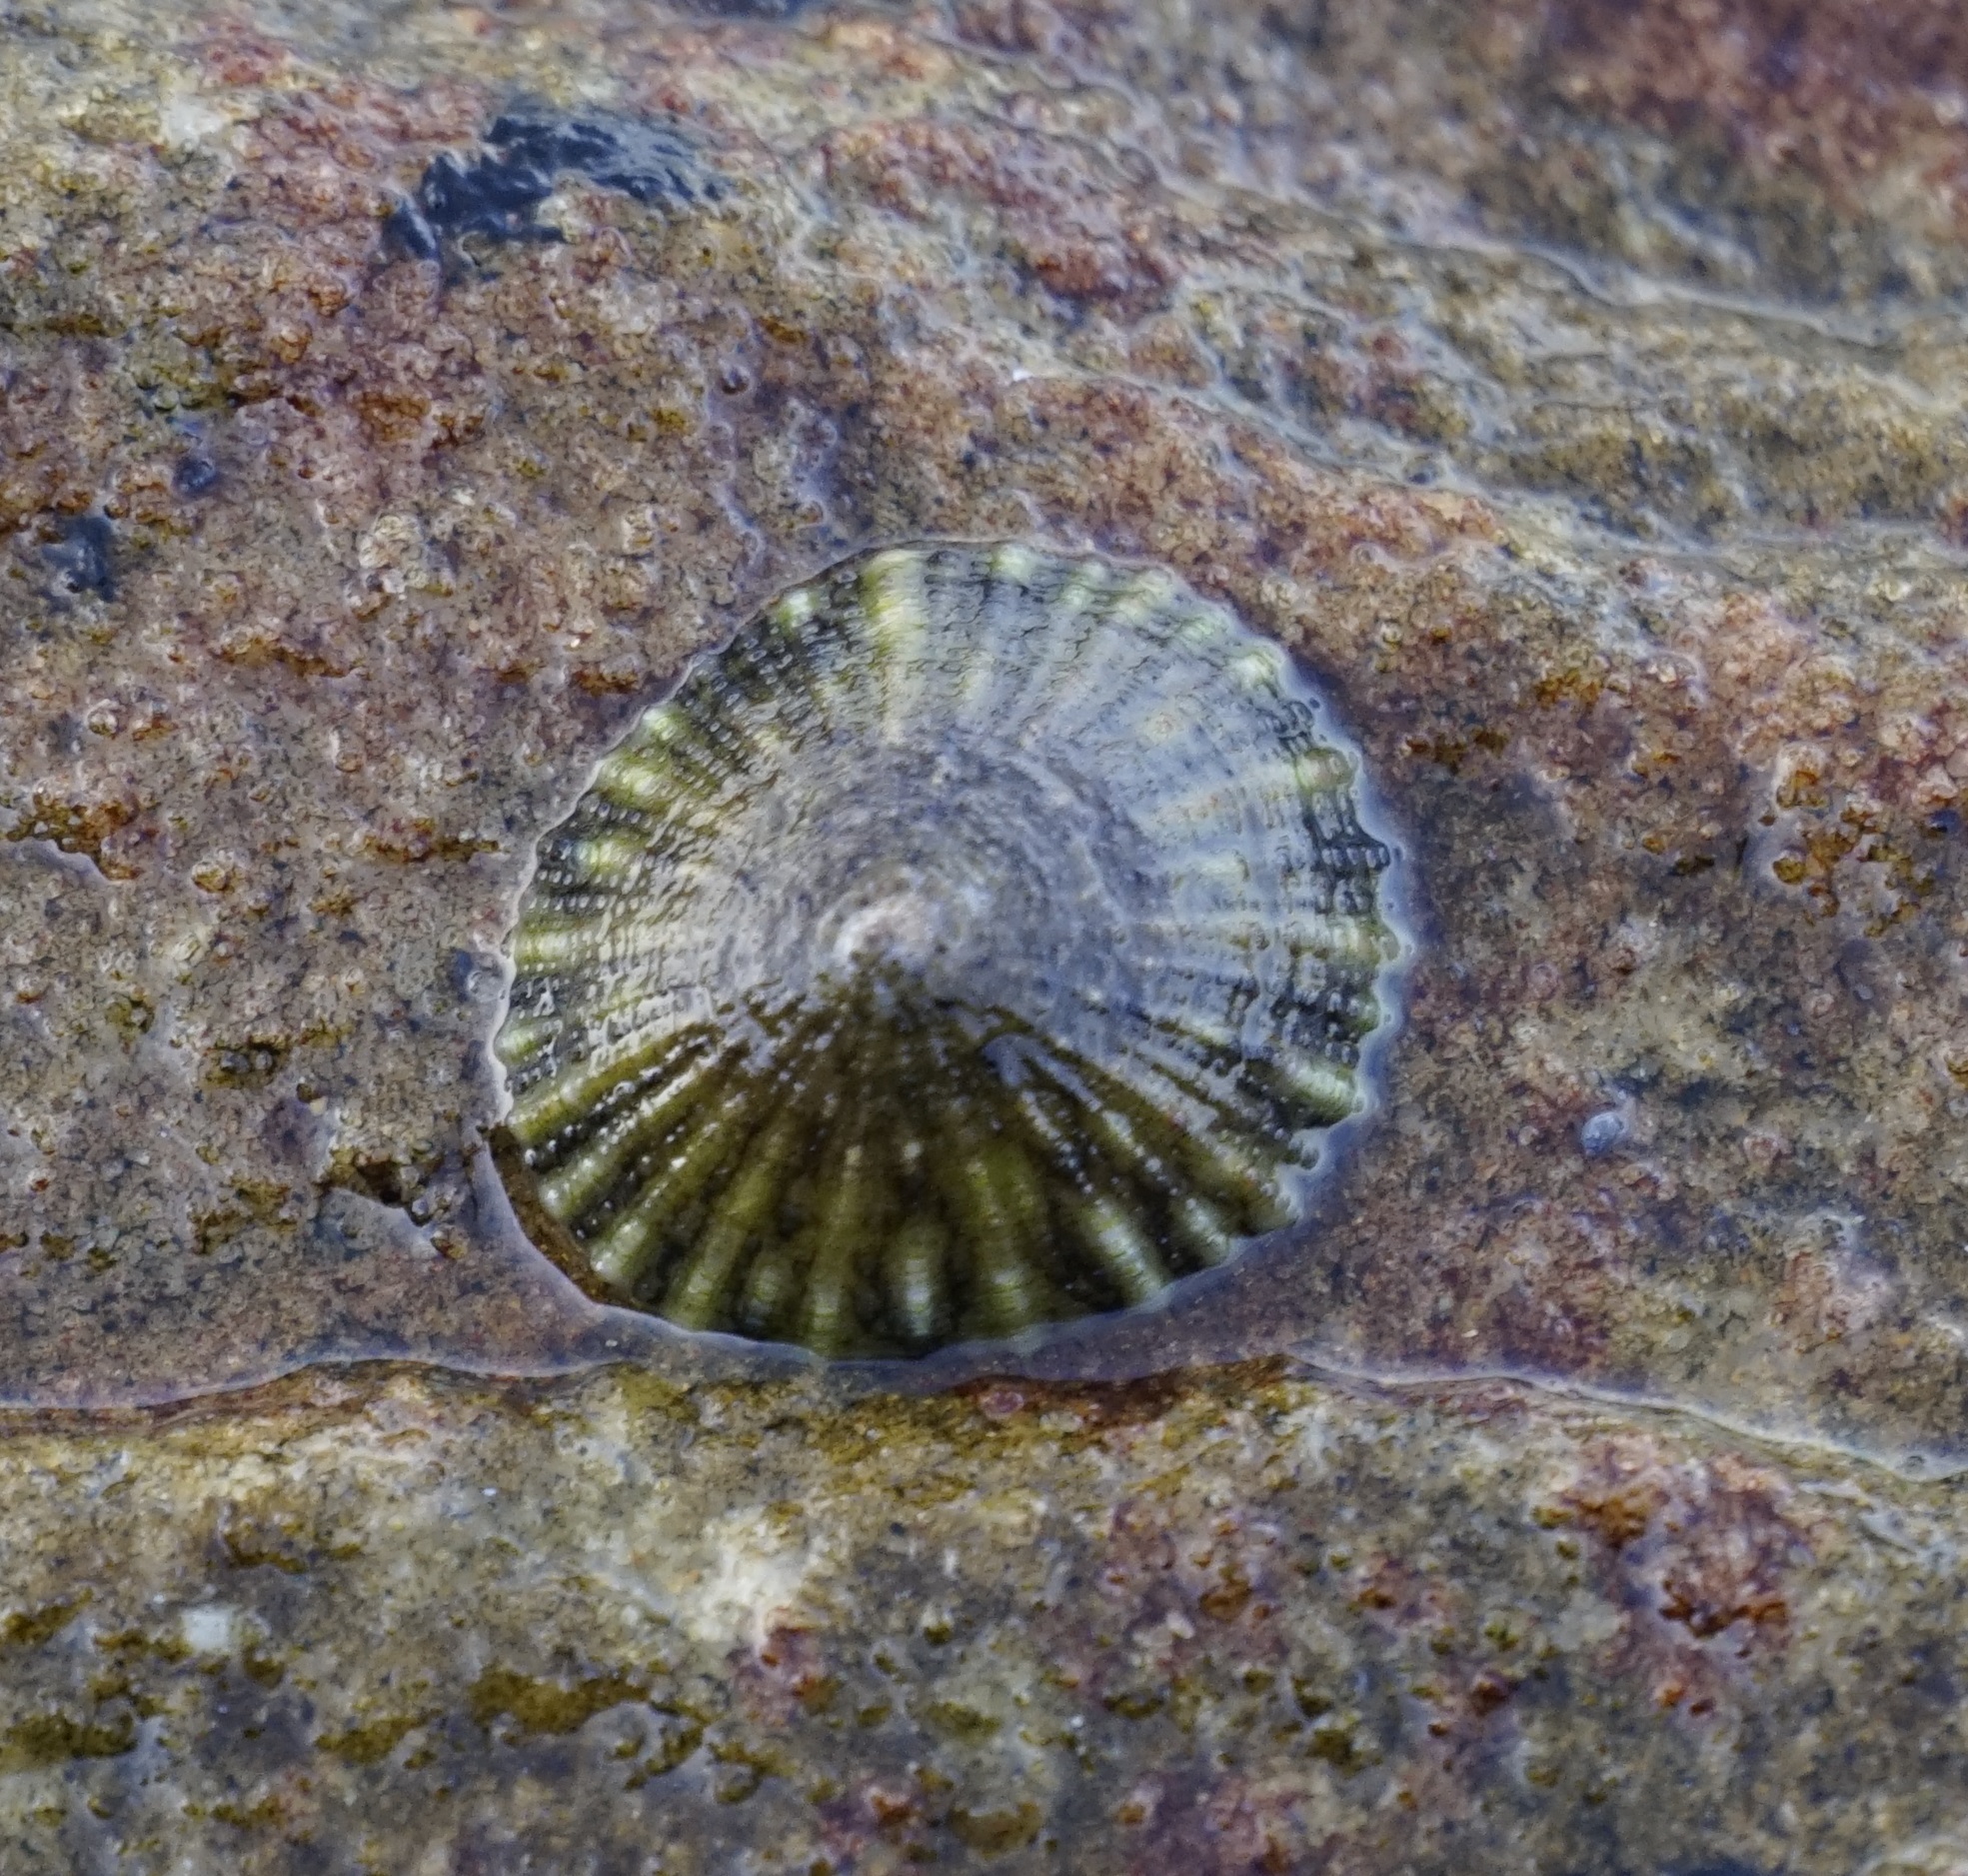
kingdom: Animalia
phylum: Mollusca
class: Gastropoda
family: Nacellidae
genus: Cellana
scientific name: Cellana tramoserica
